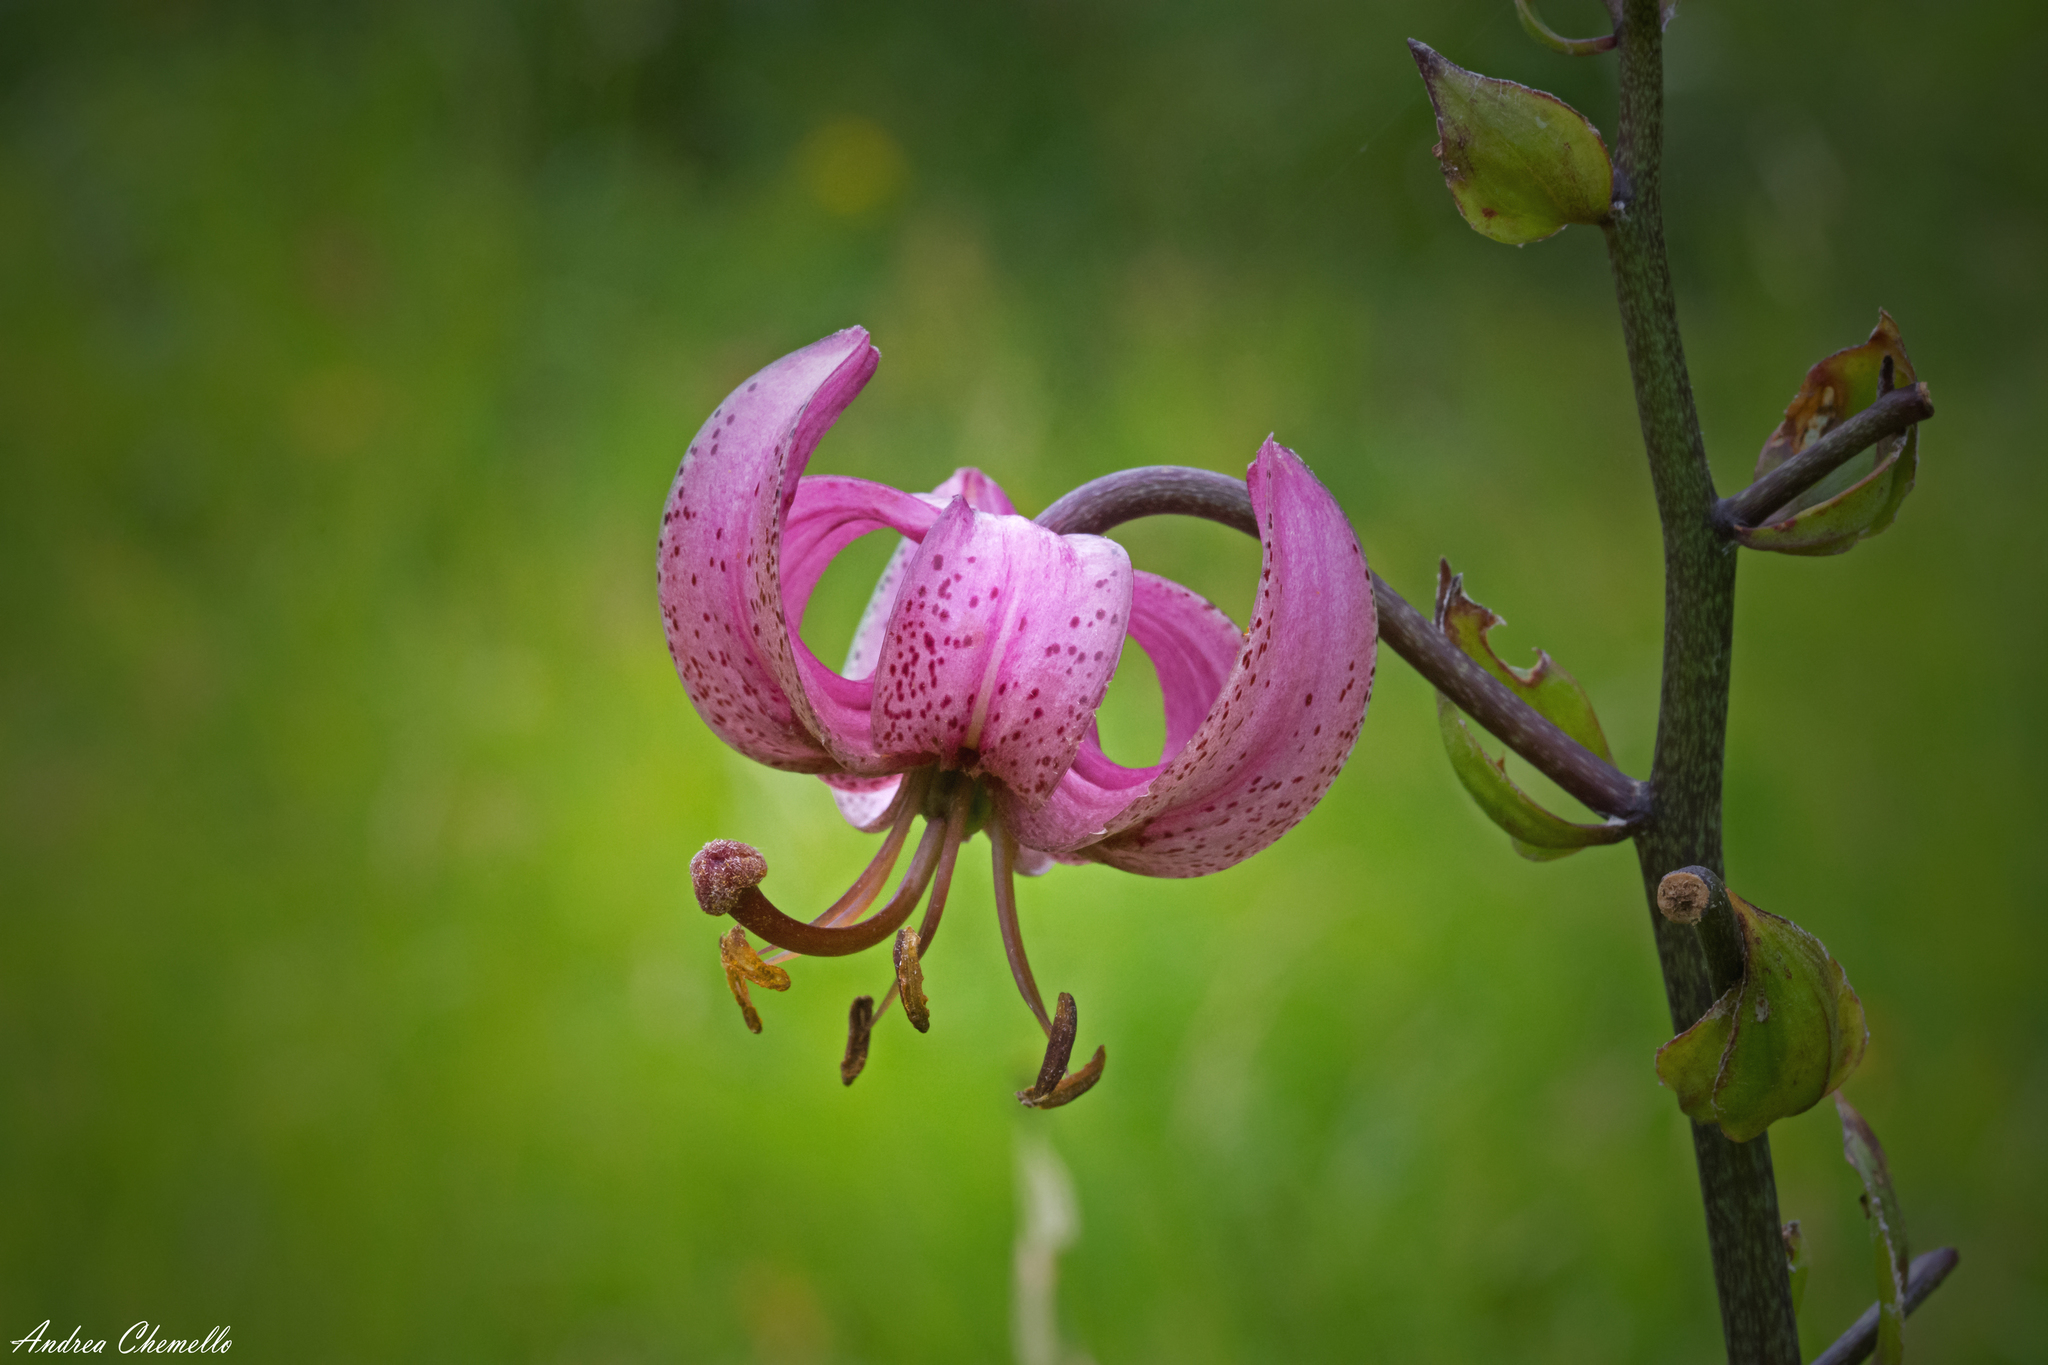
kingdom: Plantae
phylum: Tracheophyta
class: Liliopsida
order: Liliales
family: Liliaceae
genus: Lilium
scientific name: Lilium martagon
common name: Martagon lily
